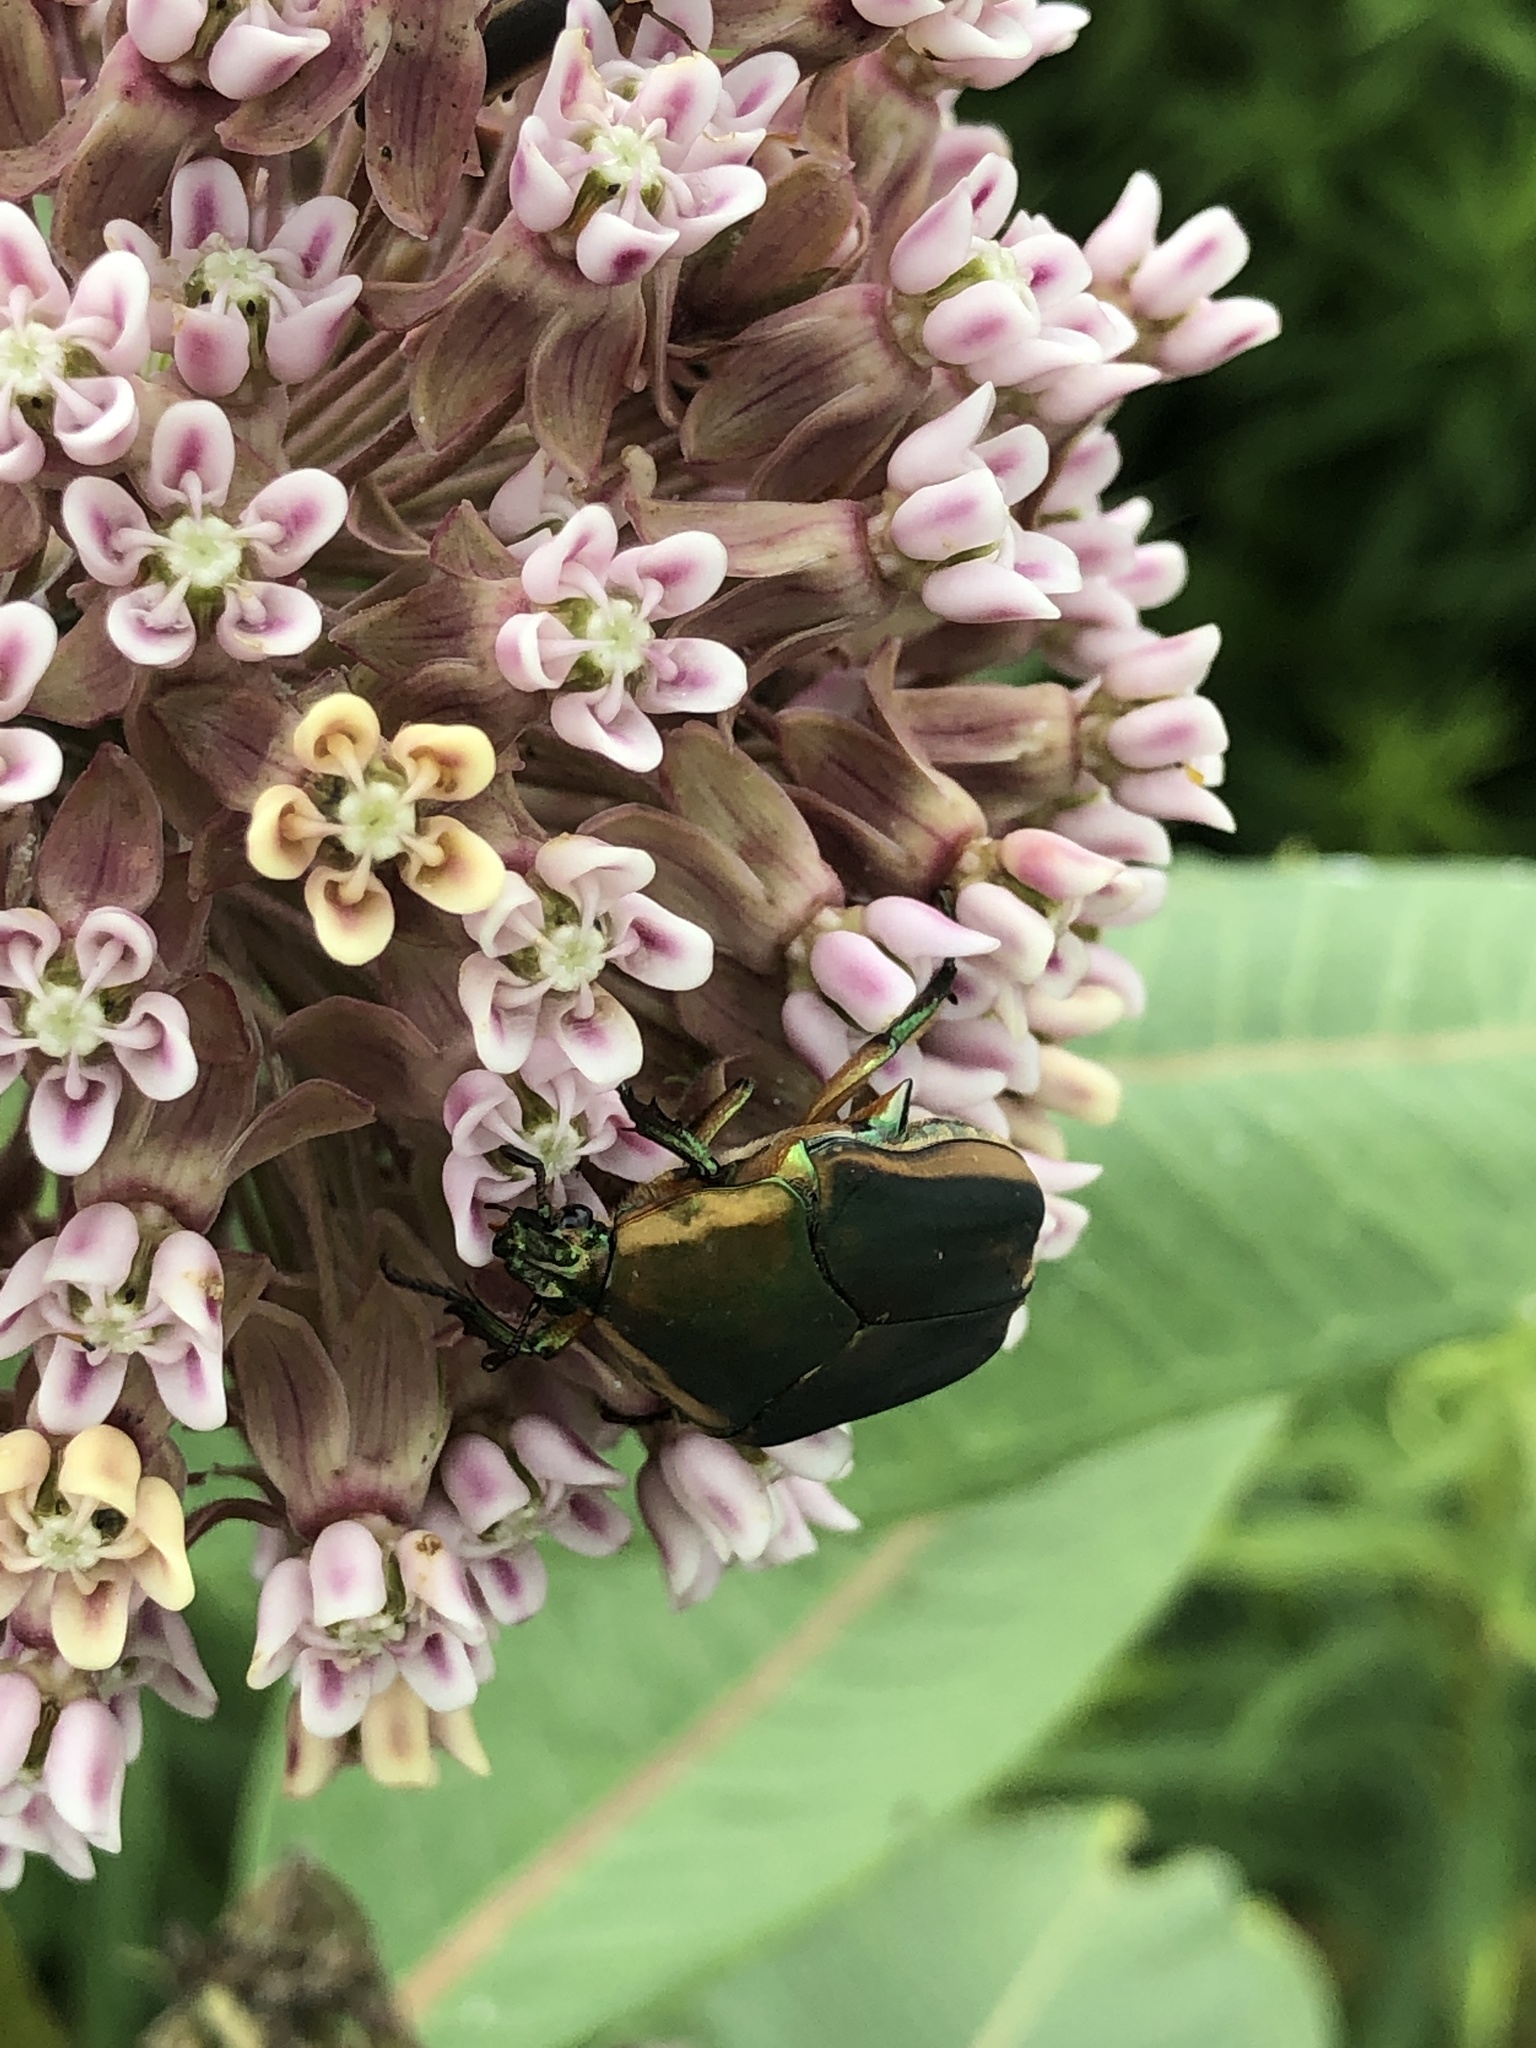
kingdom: Animalia
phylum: Arthropoda
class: Insecta
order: Coleoptera
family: Scarabaeidae
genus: Cotinis
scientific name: Cotinis nitida
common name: Common green june beetle
